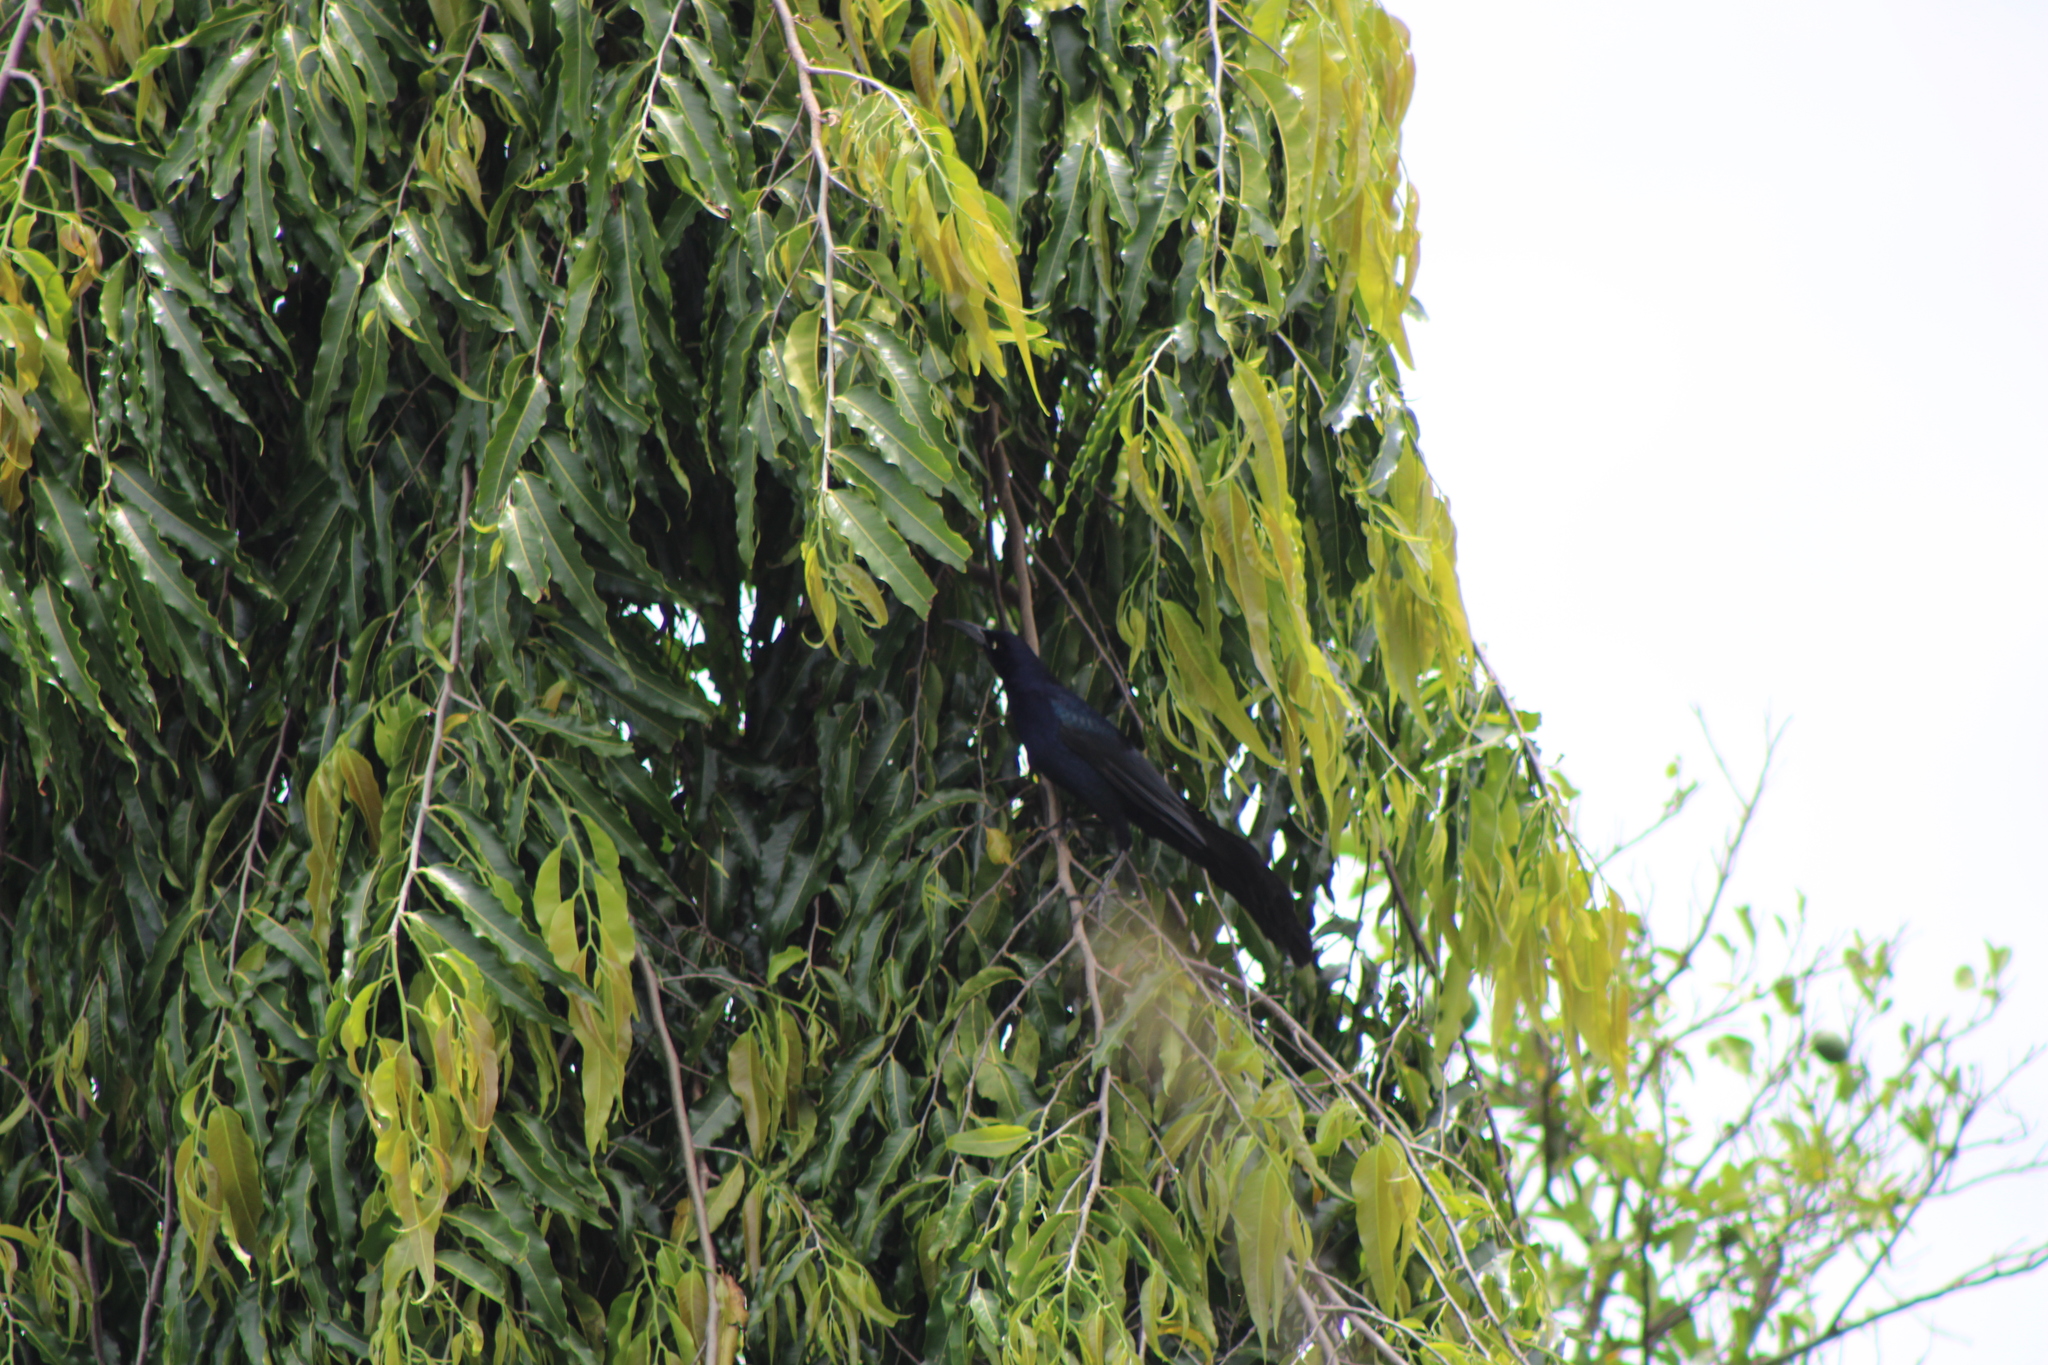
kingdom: Animalia
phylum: Chordata
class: Aves
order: Passeriformes
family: Icteridae
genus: Quiscalus
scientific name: Quiscalus mexicanus
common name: Great-tailed grackle
